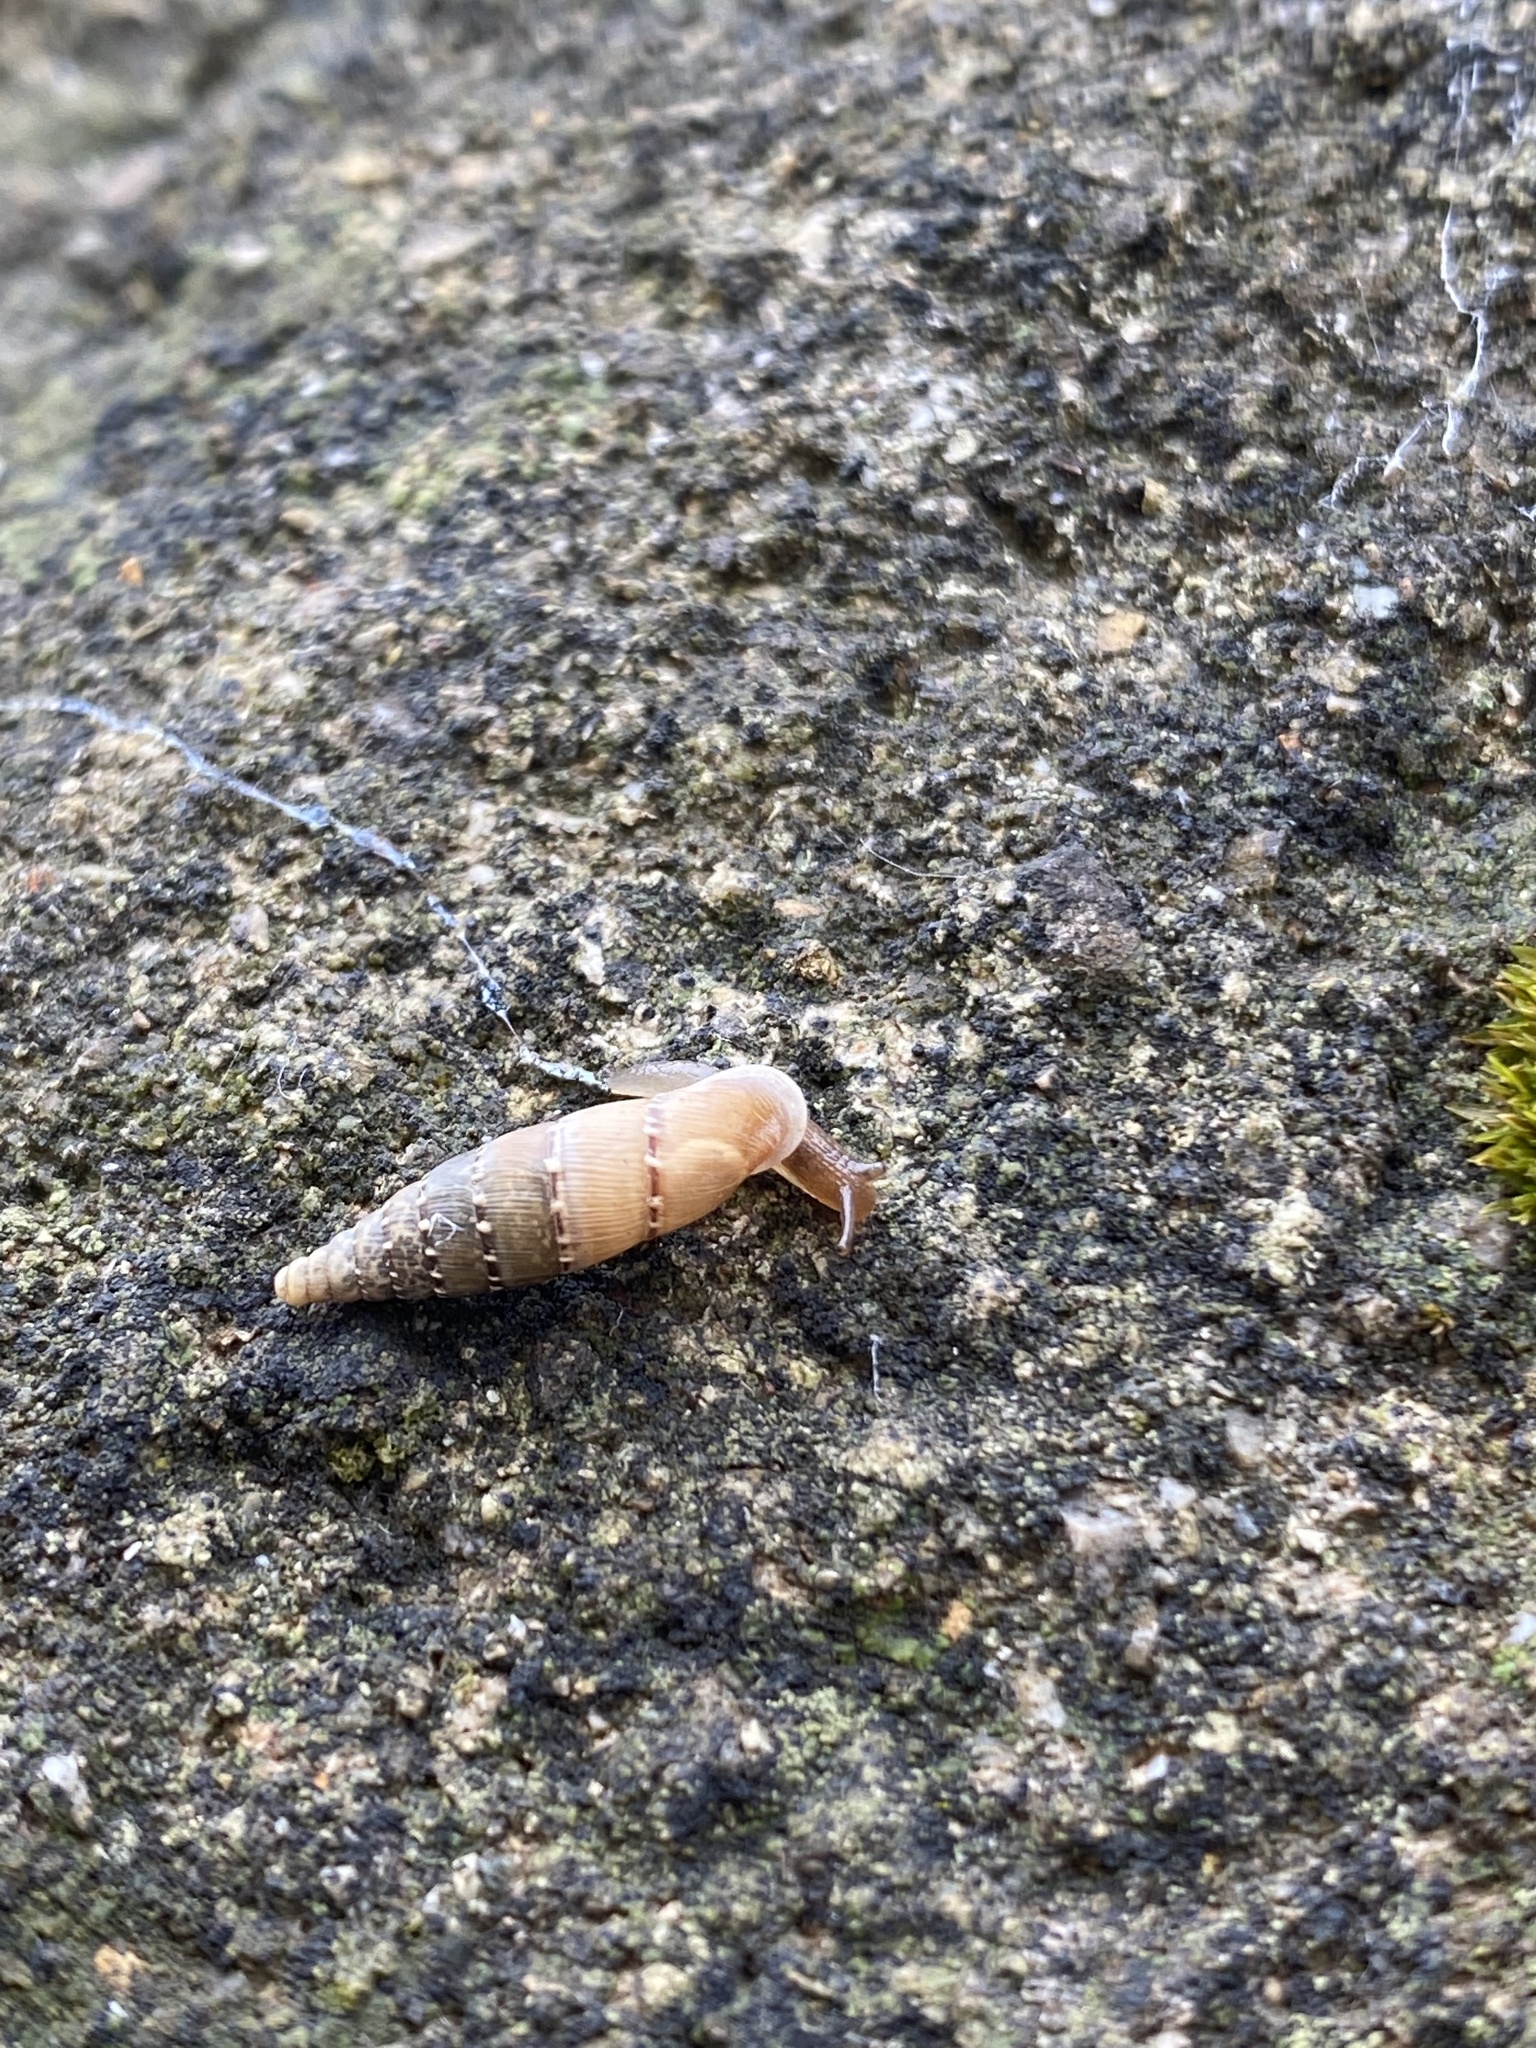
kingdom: Animalia
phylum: Mollusca
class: Gastropoda
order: Stylommatophora
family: Clausiliidae
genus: Papillifera
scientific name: Papillifera papillaris
